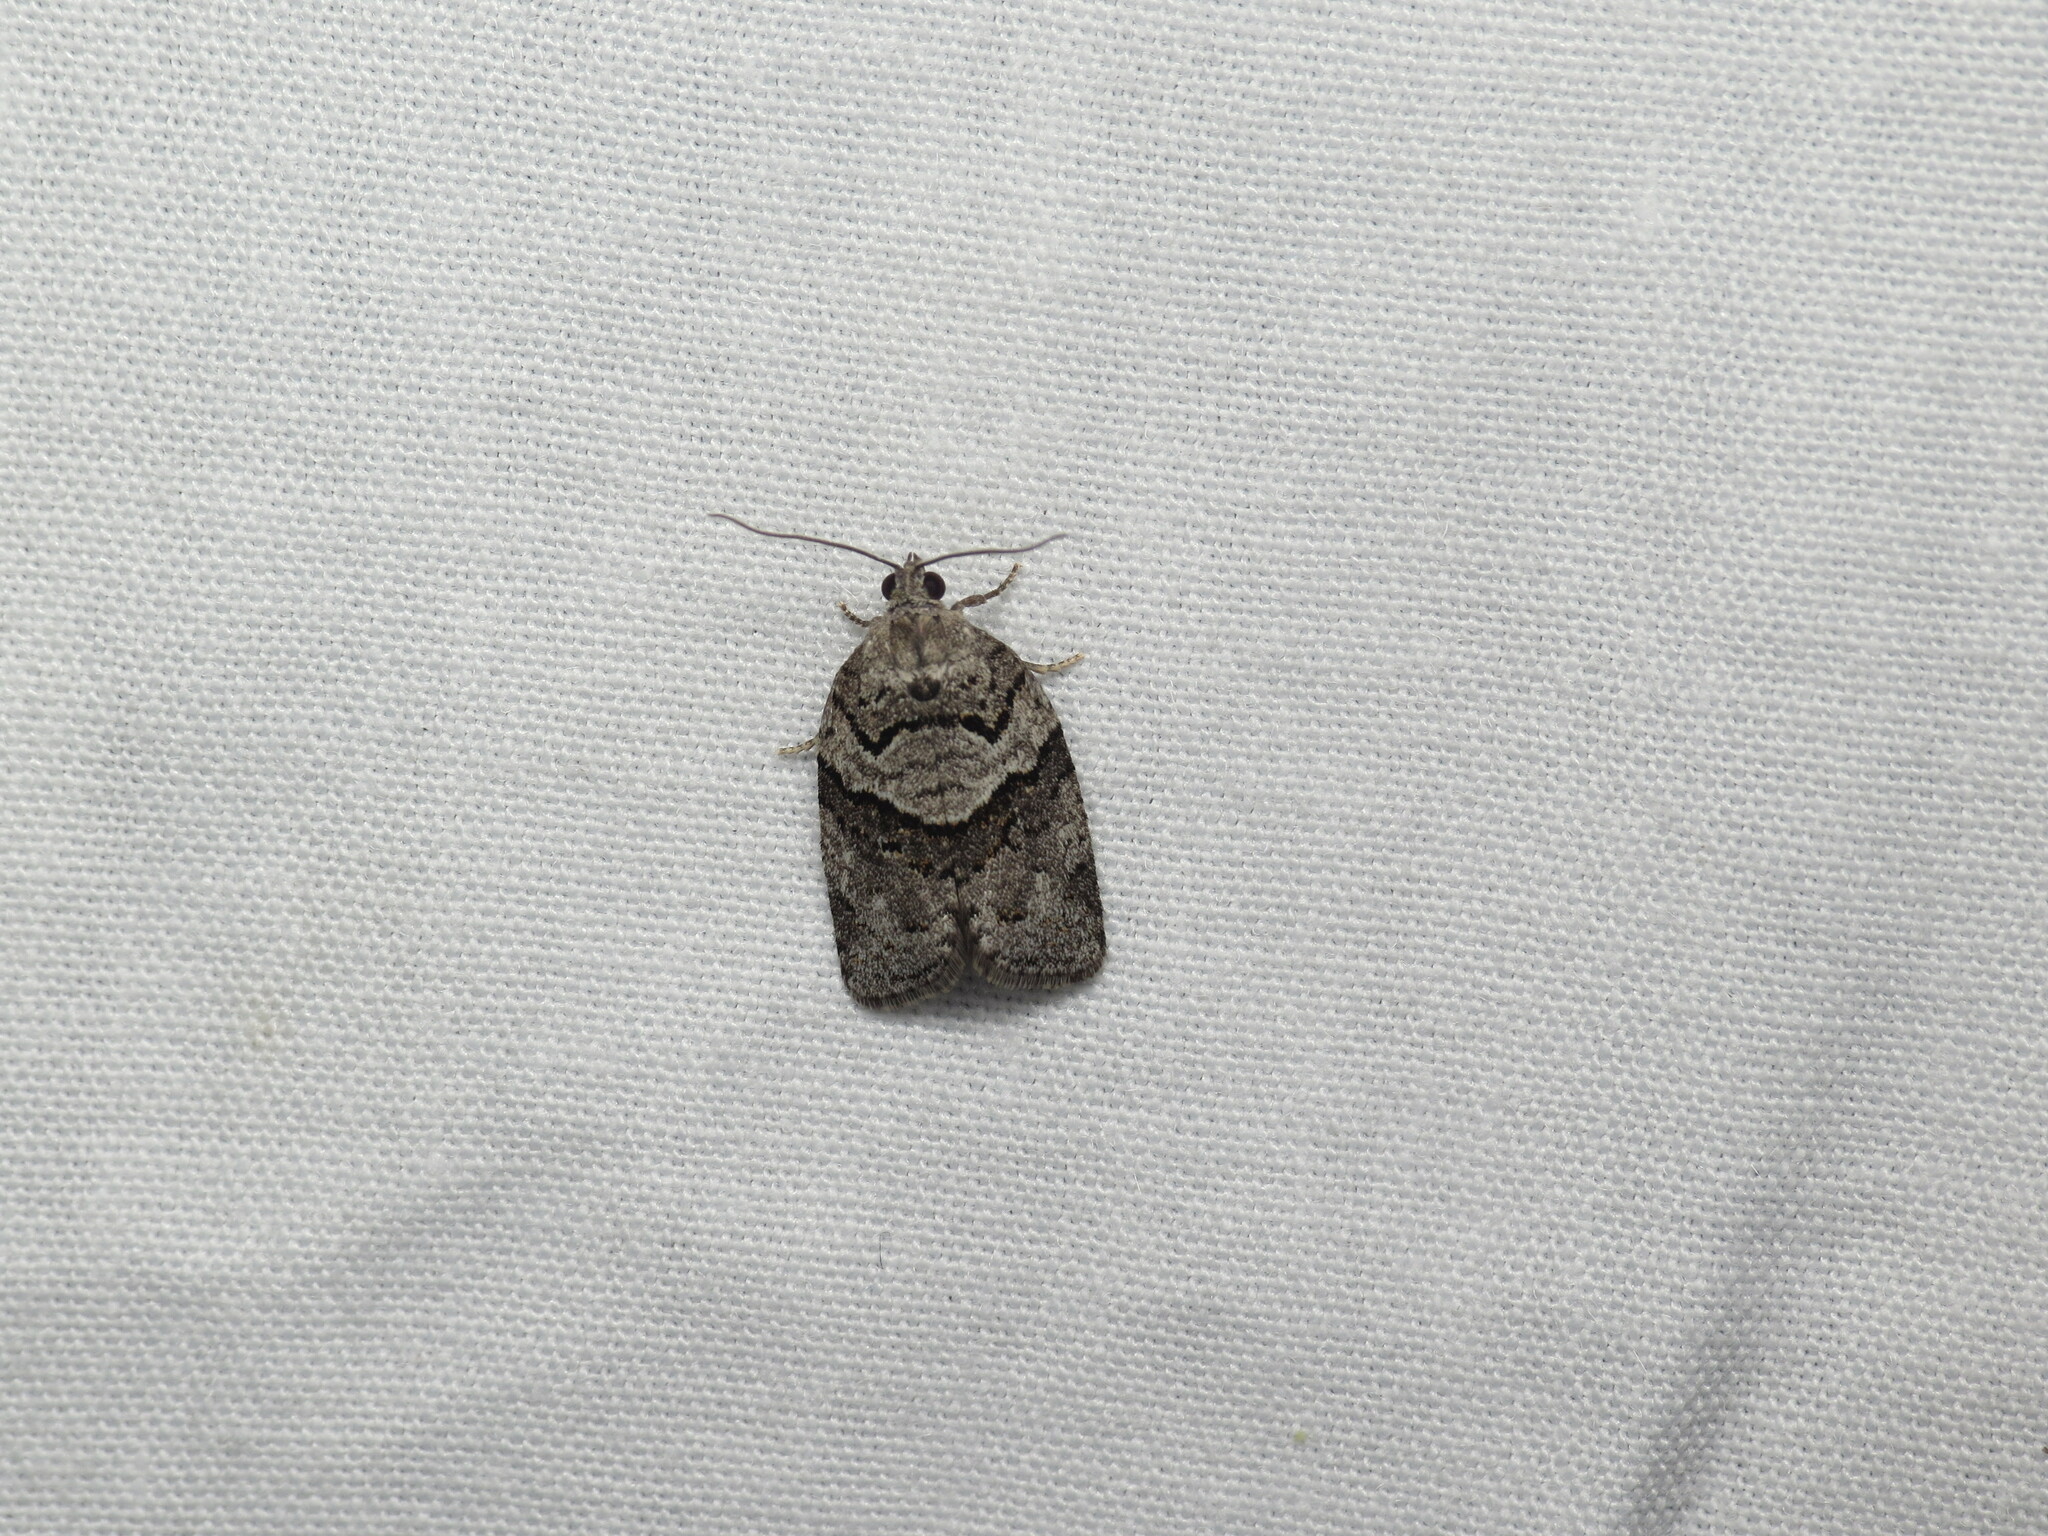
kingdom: Animalia
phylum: Arthropoda
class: Insecta
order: Lepidoptera
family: Tortricidae
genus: Syndemis
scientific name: Syndemis afflictana
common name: Gray leafroller moth
